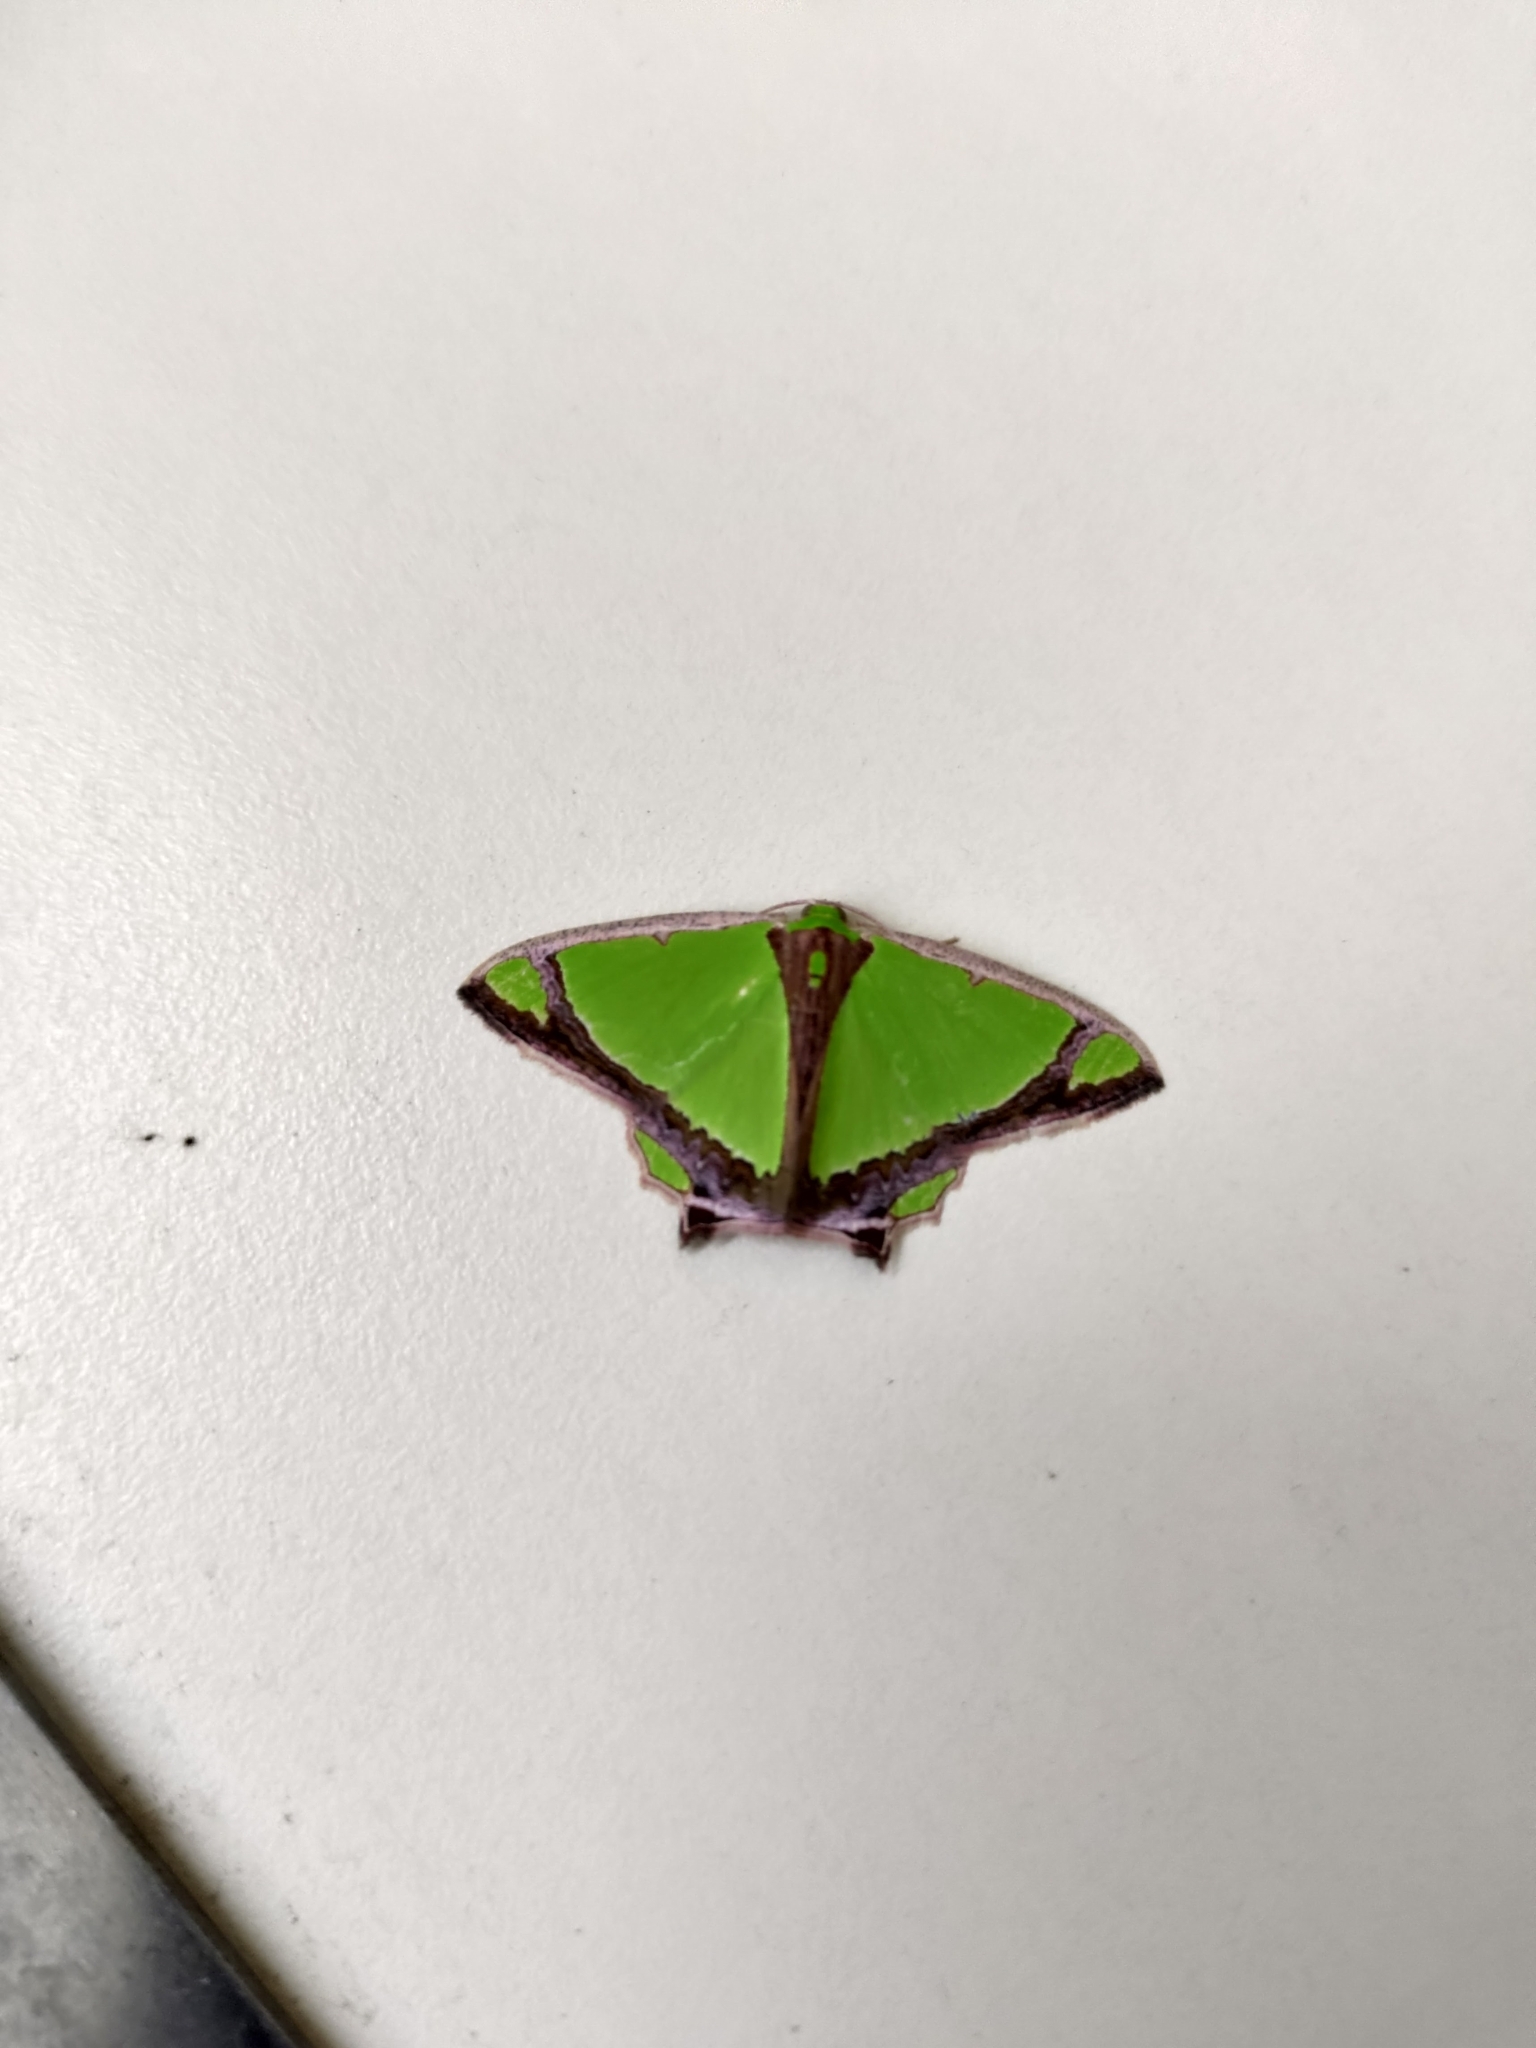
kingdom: Animalia
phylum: Arthropoda
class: Insecta
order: Lepidoptera
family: Geometridae
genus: Agathia
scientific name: Agathia laetata
